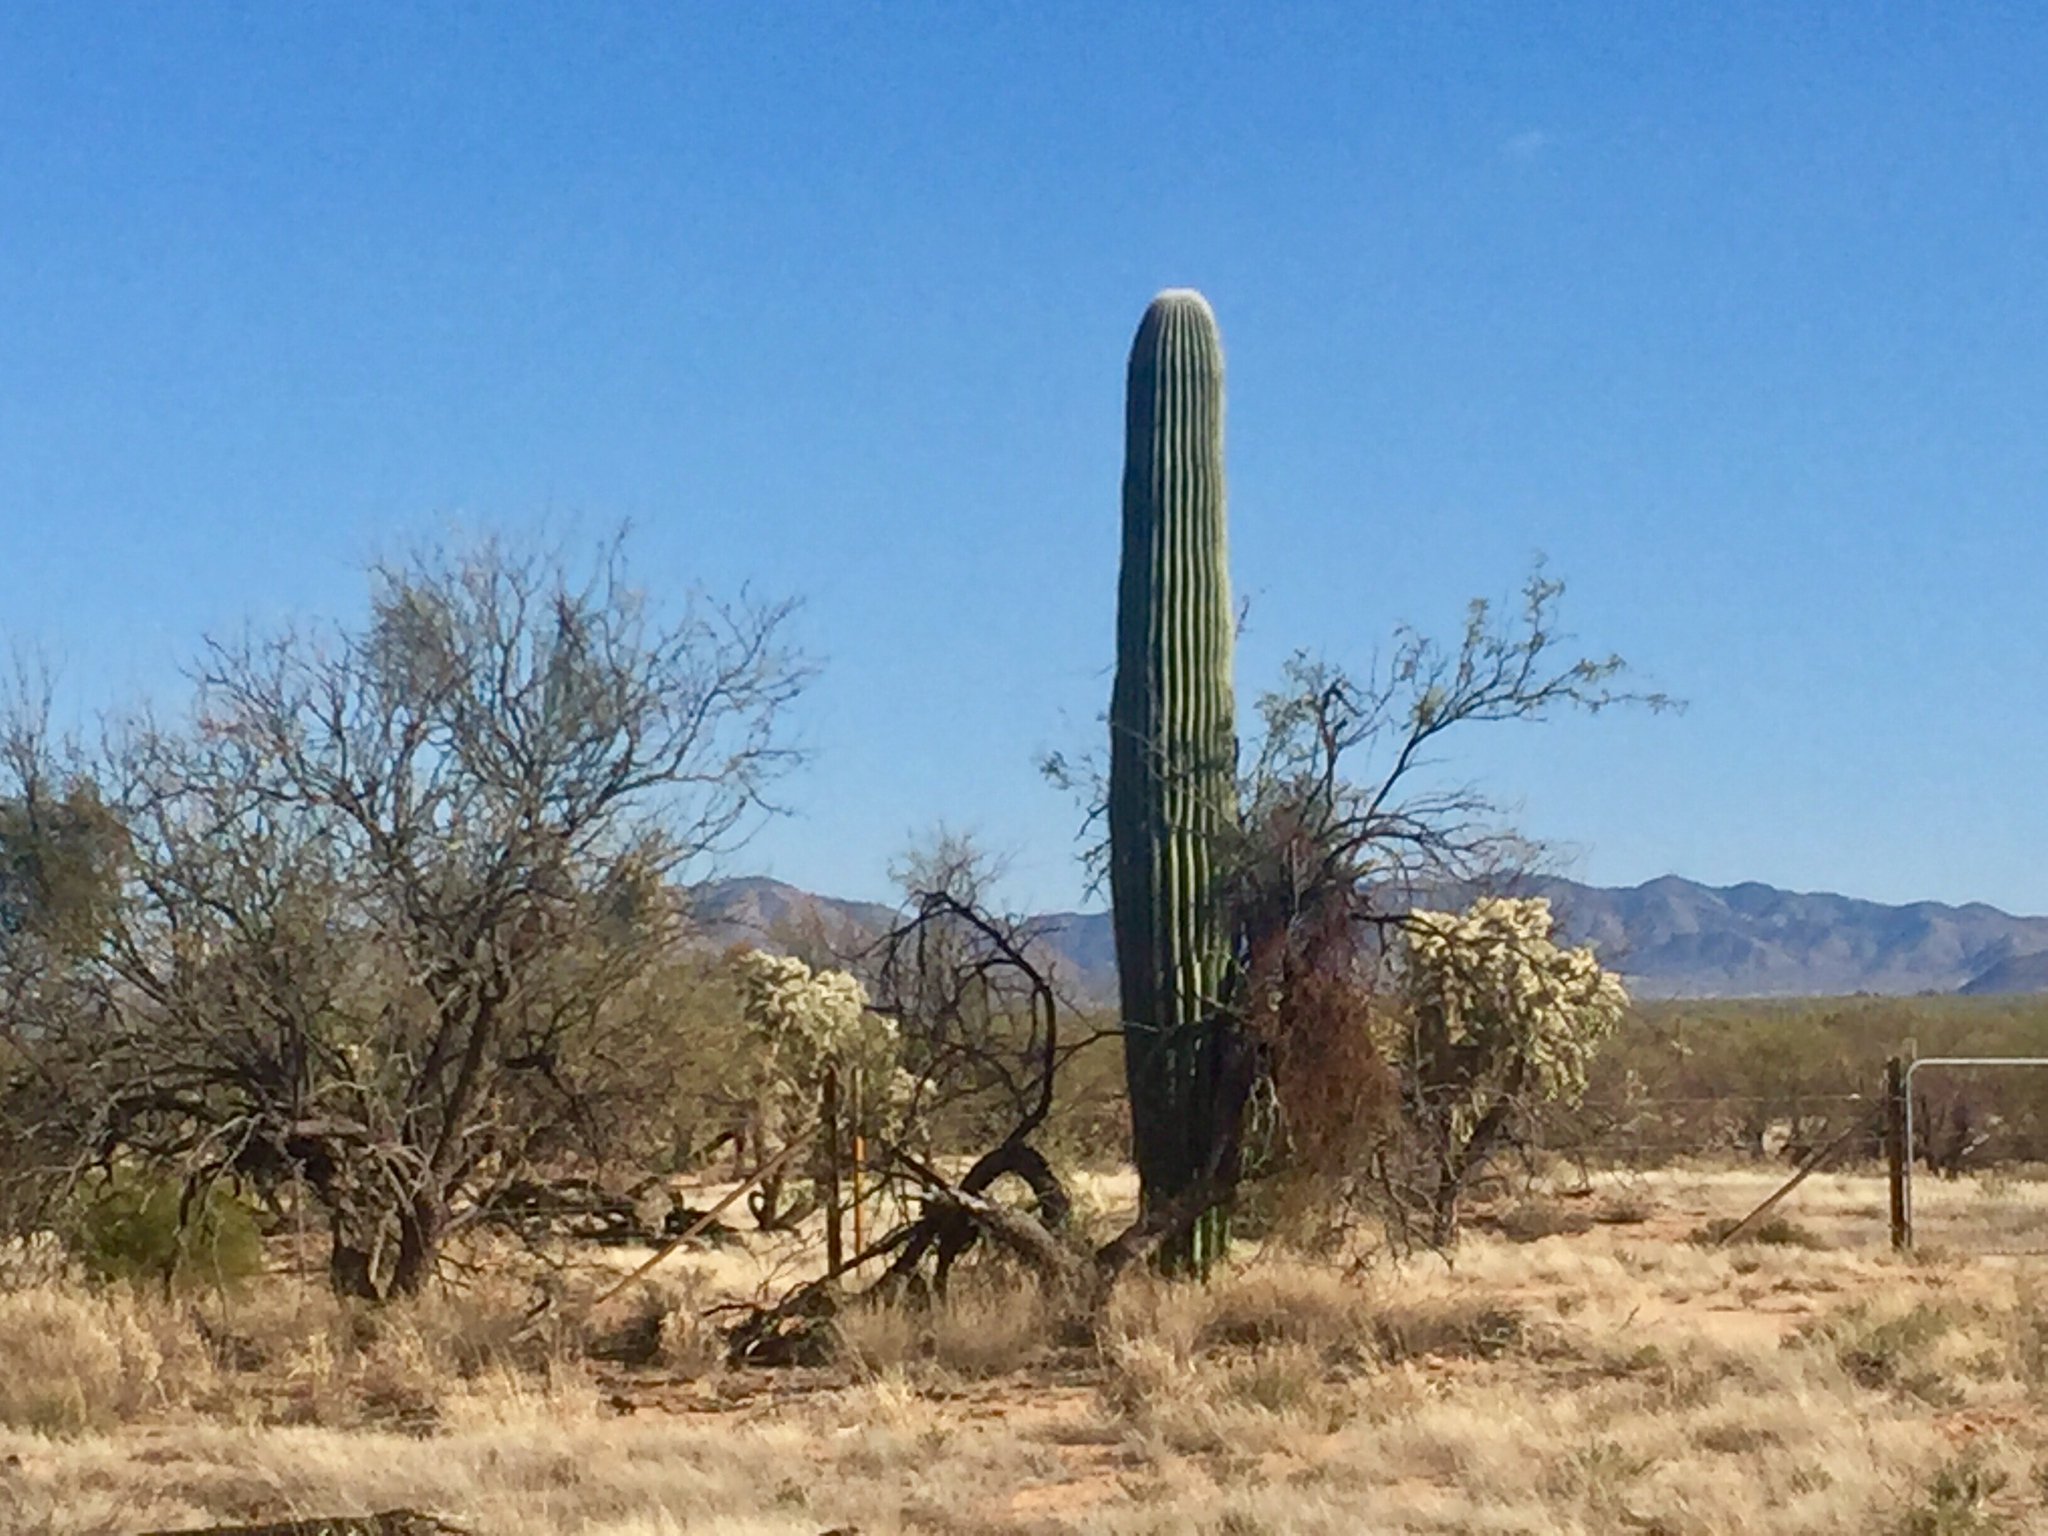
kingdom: Plantae
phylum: Tracheophyta
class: Magnoliopsida
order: Caryophyllales
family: Cactaceae
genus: Carnegiea
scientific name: Carnegiea gigantea
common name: Saguaro
